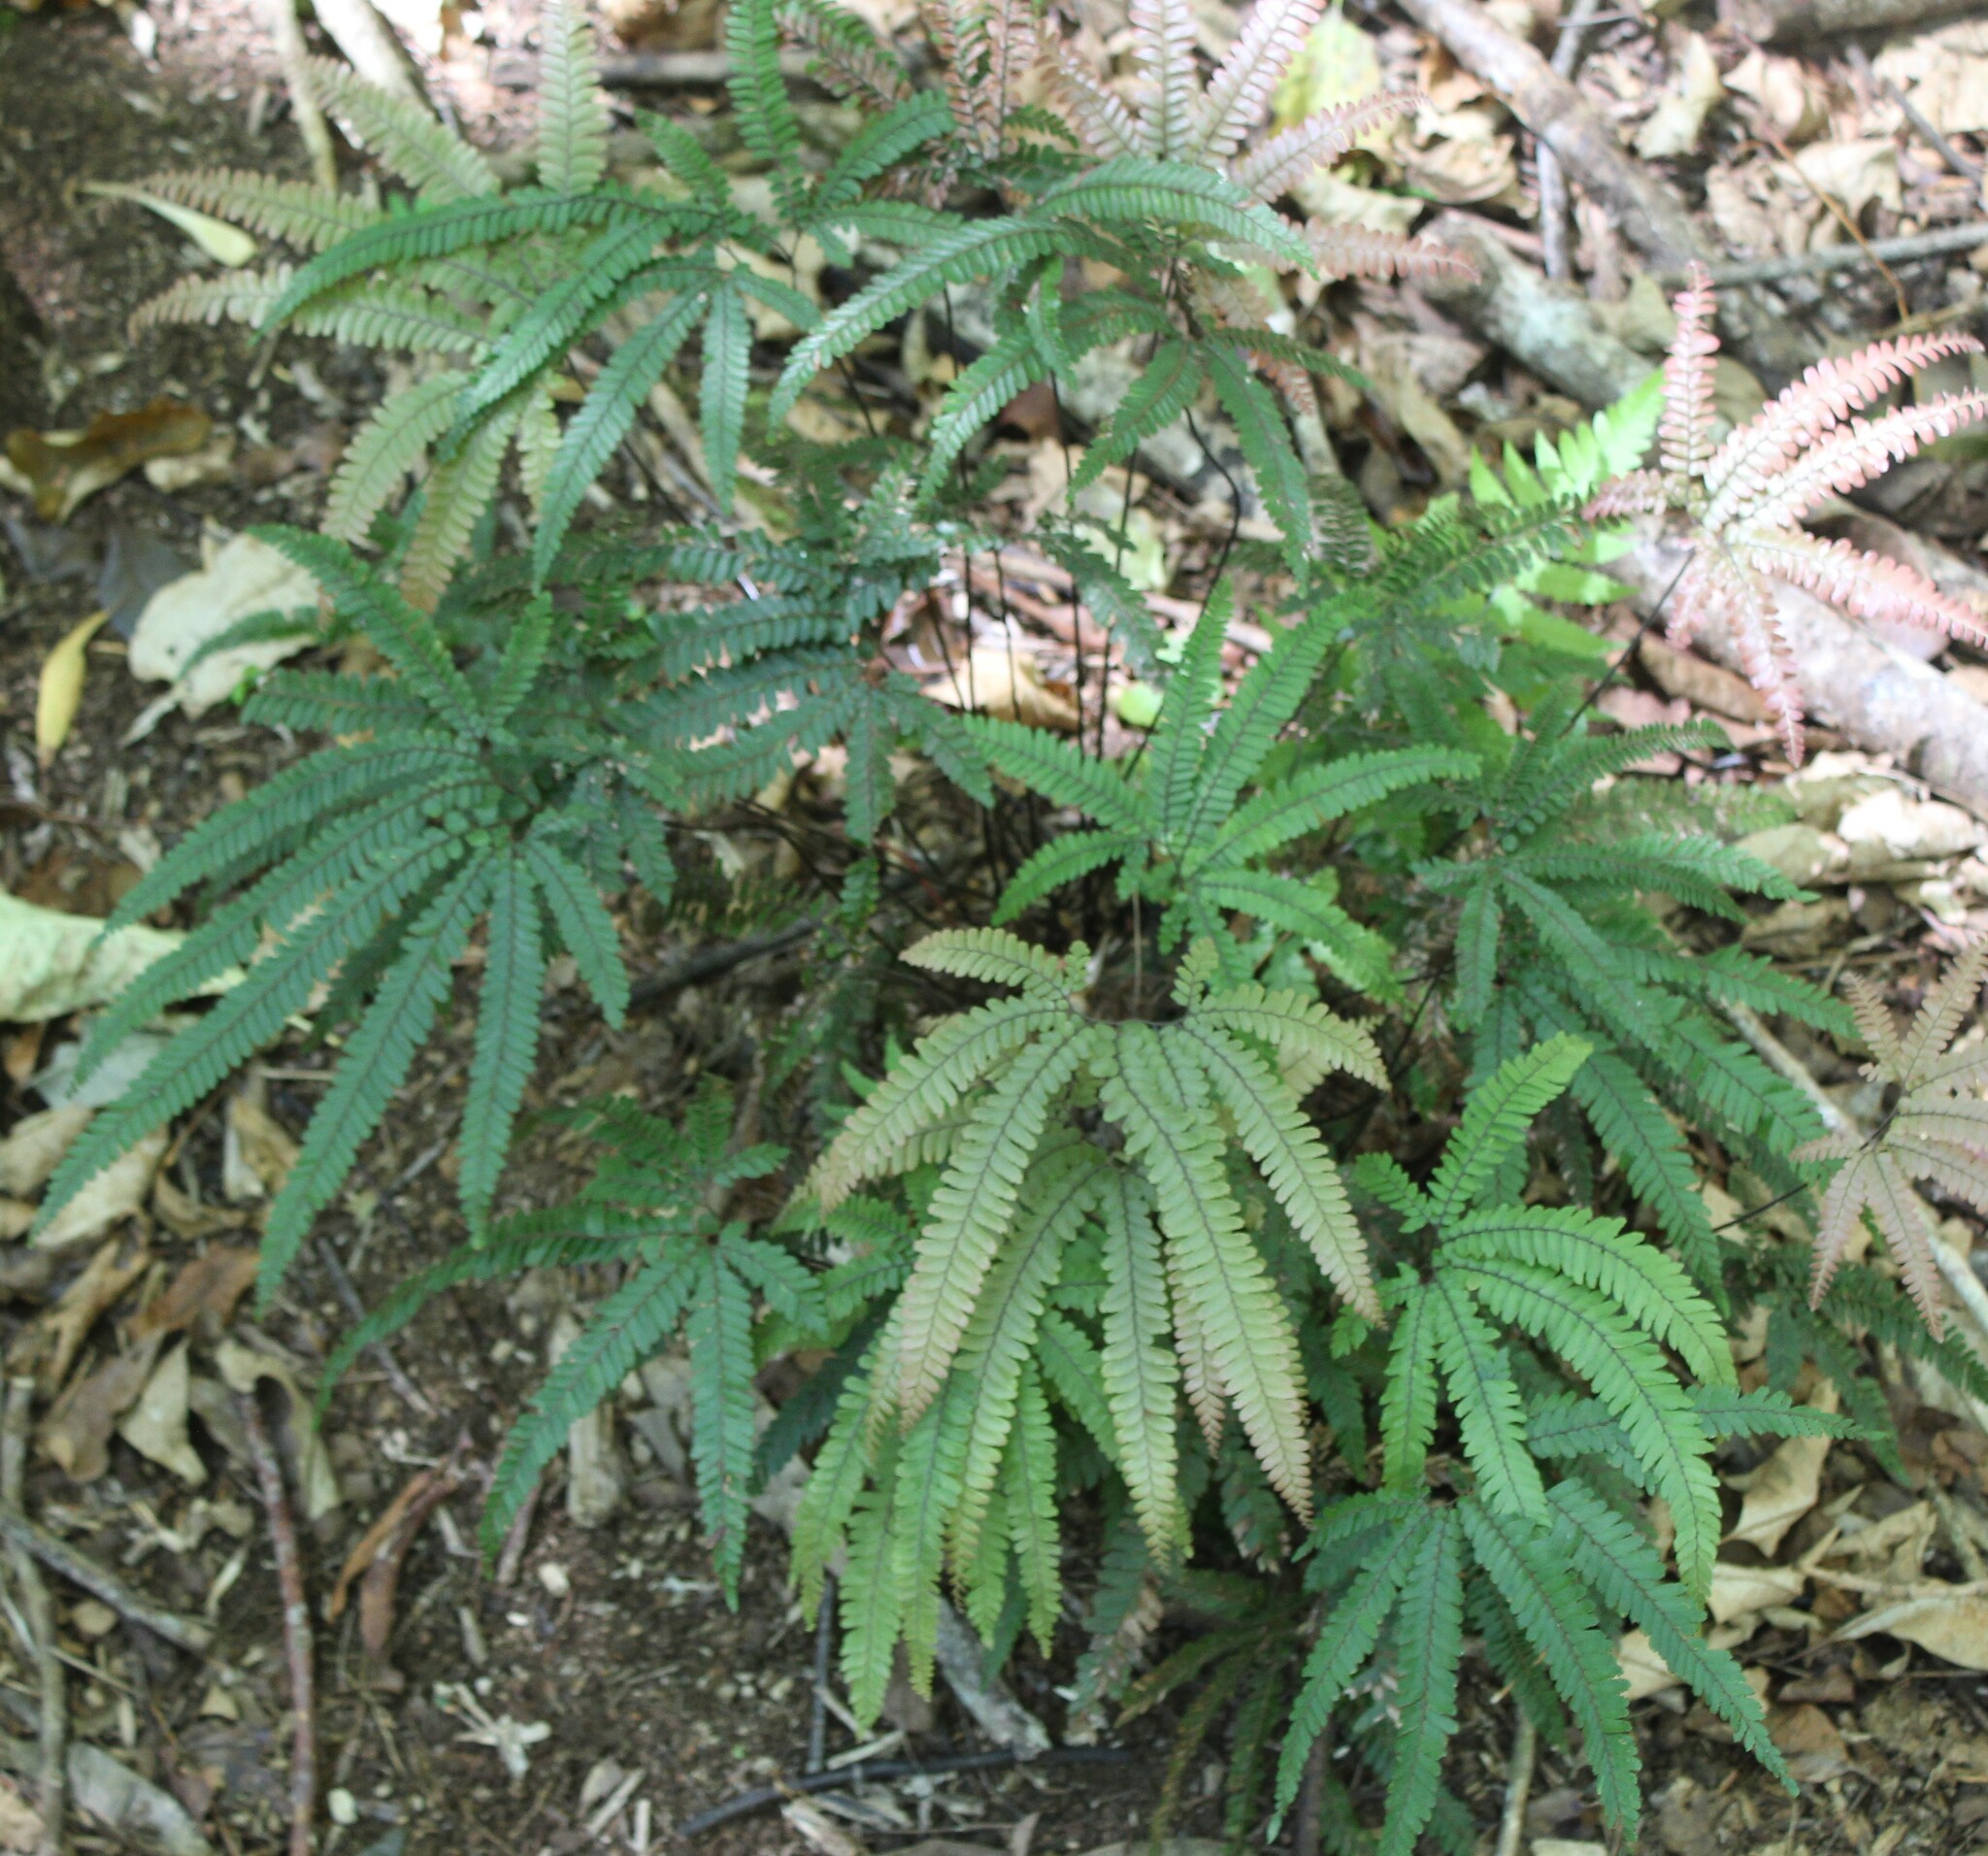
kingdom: Plantae
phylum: Tracheophyta
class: Polypodiopsida
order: Polypodiales
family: Pteridaceae
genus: Adiantum
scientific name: Adiantum hispidulum
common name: Rough maidenhair
